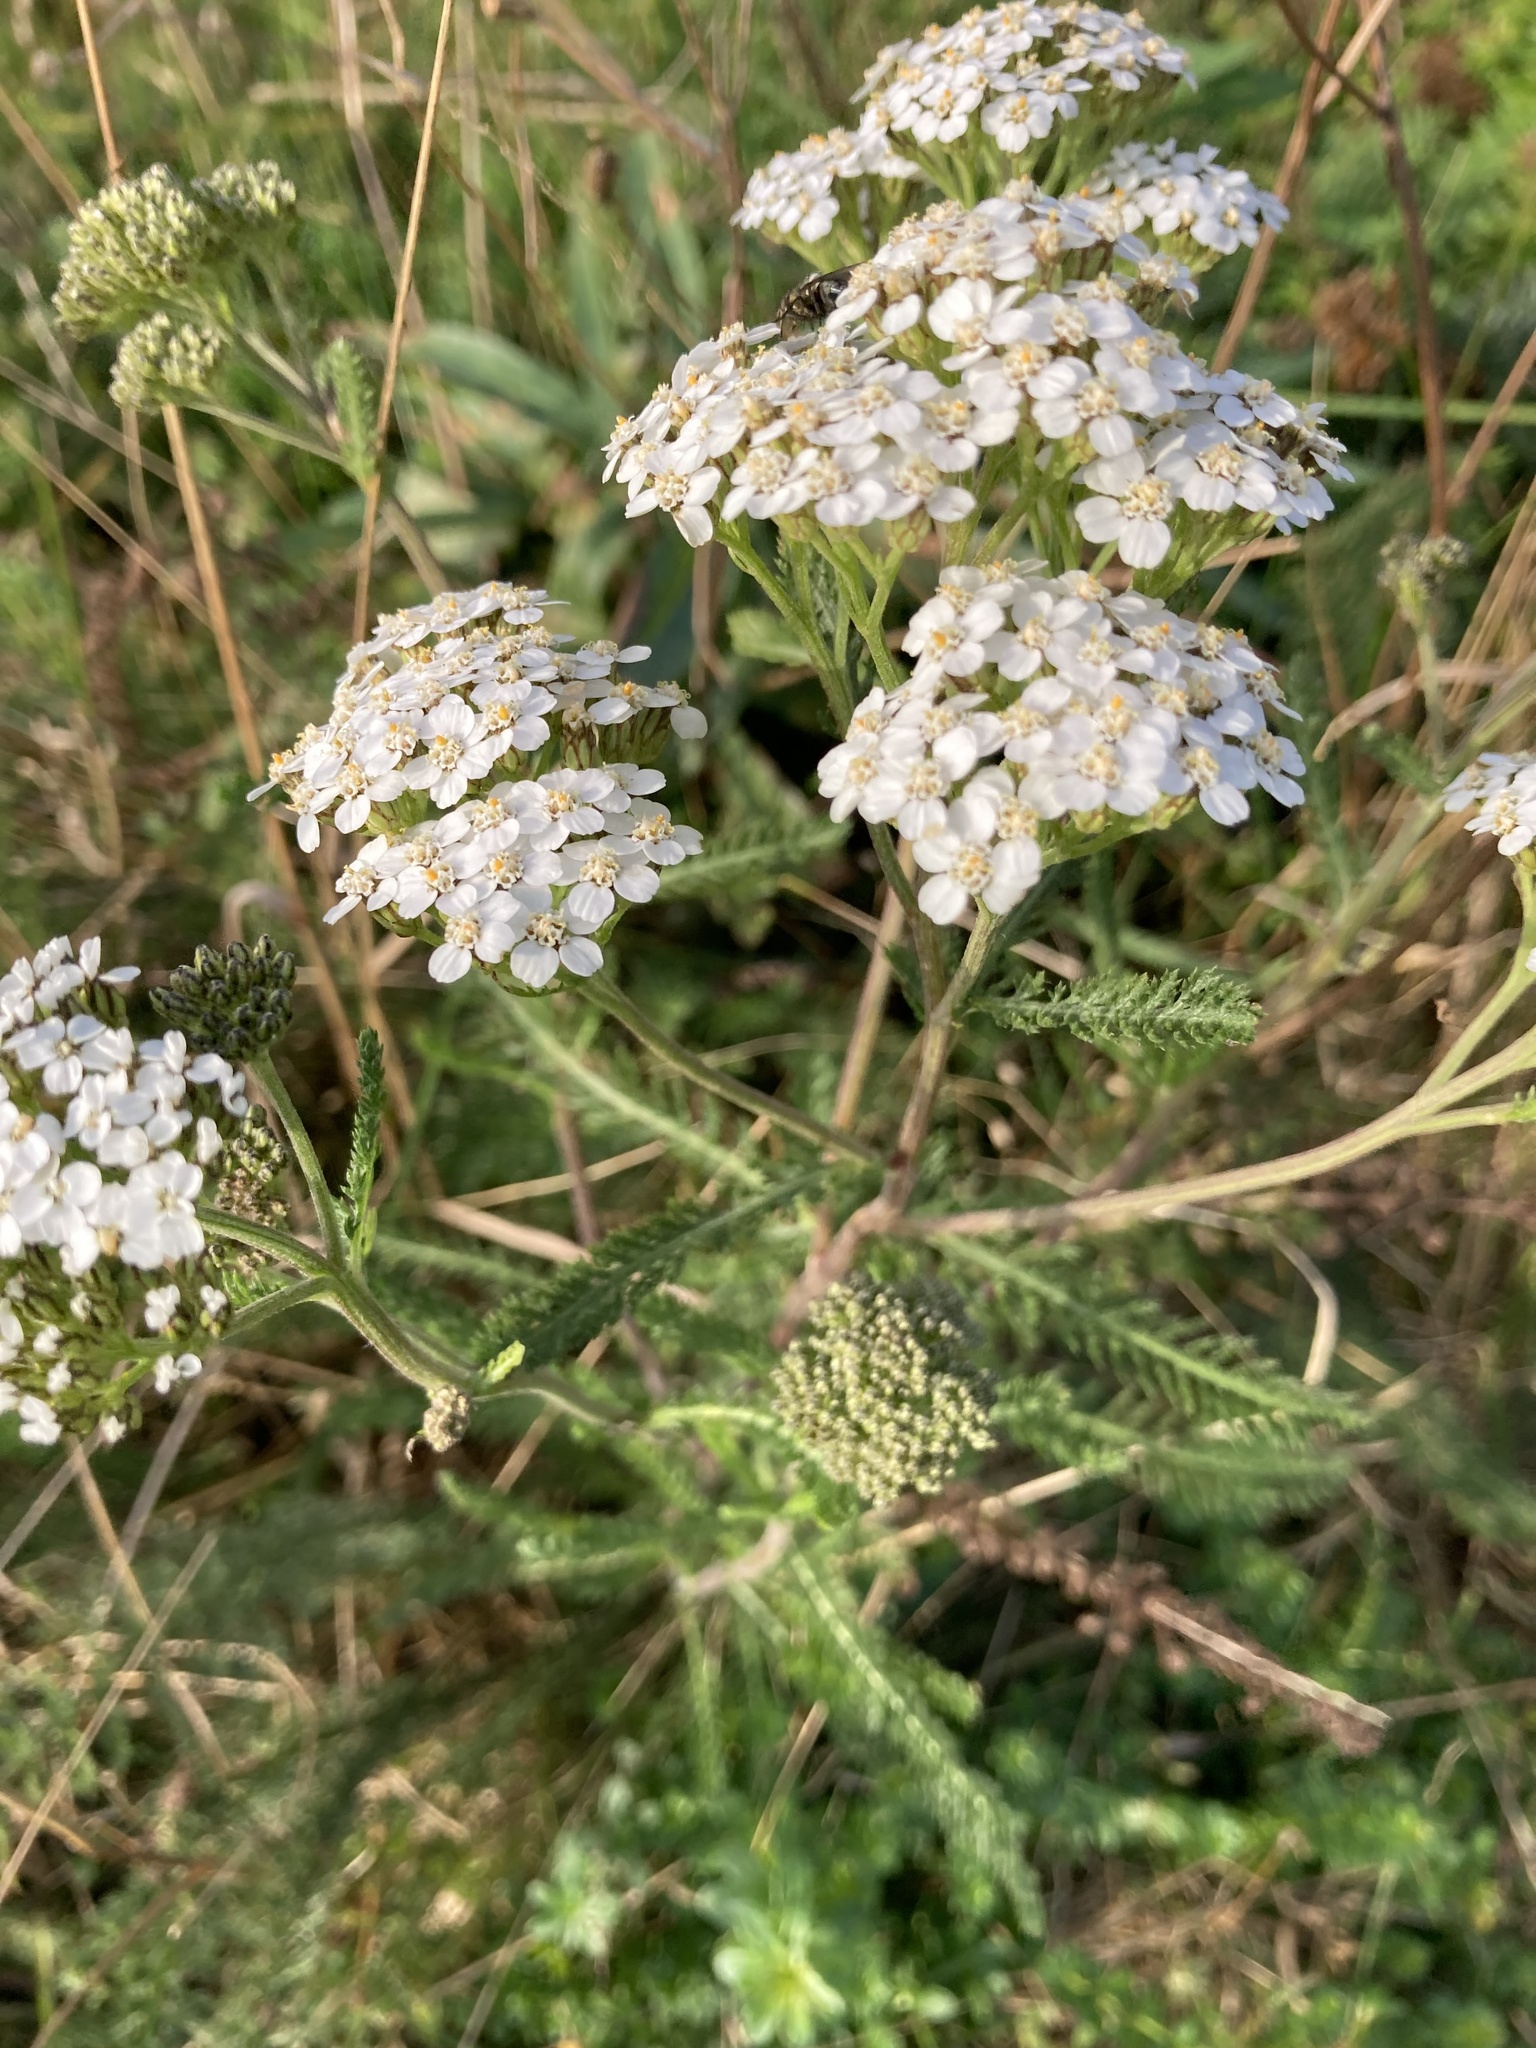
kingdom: Plantae
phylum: Tracheophyta
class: Magnoliopsida
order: Asterales
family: Asteraceae
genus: Achillea
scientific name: Achillea millefolium
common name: Yarrow
